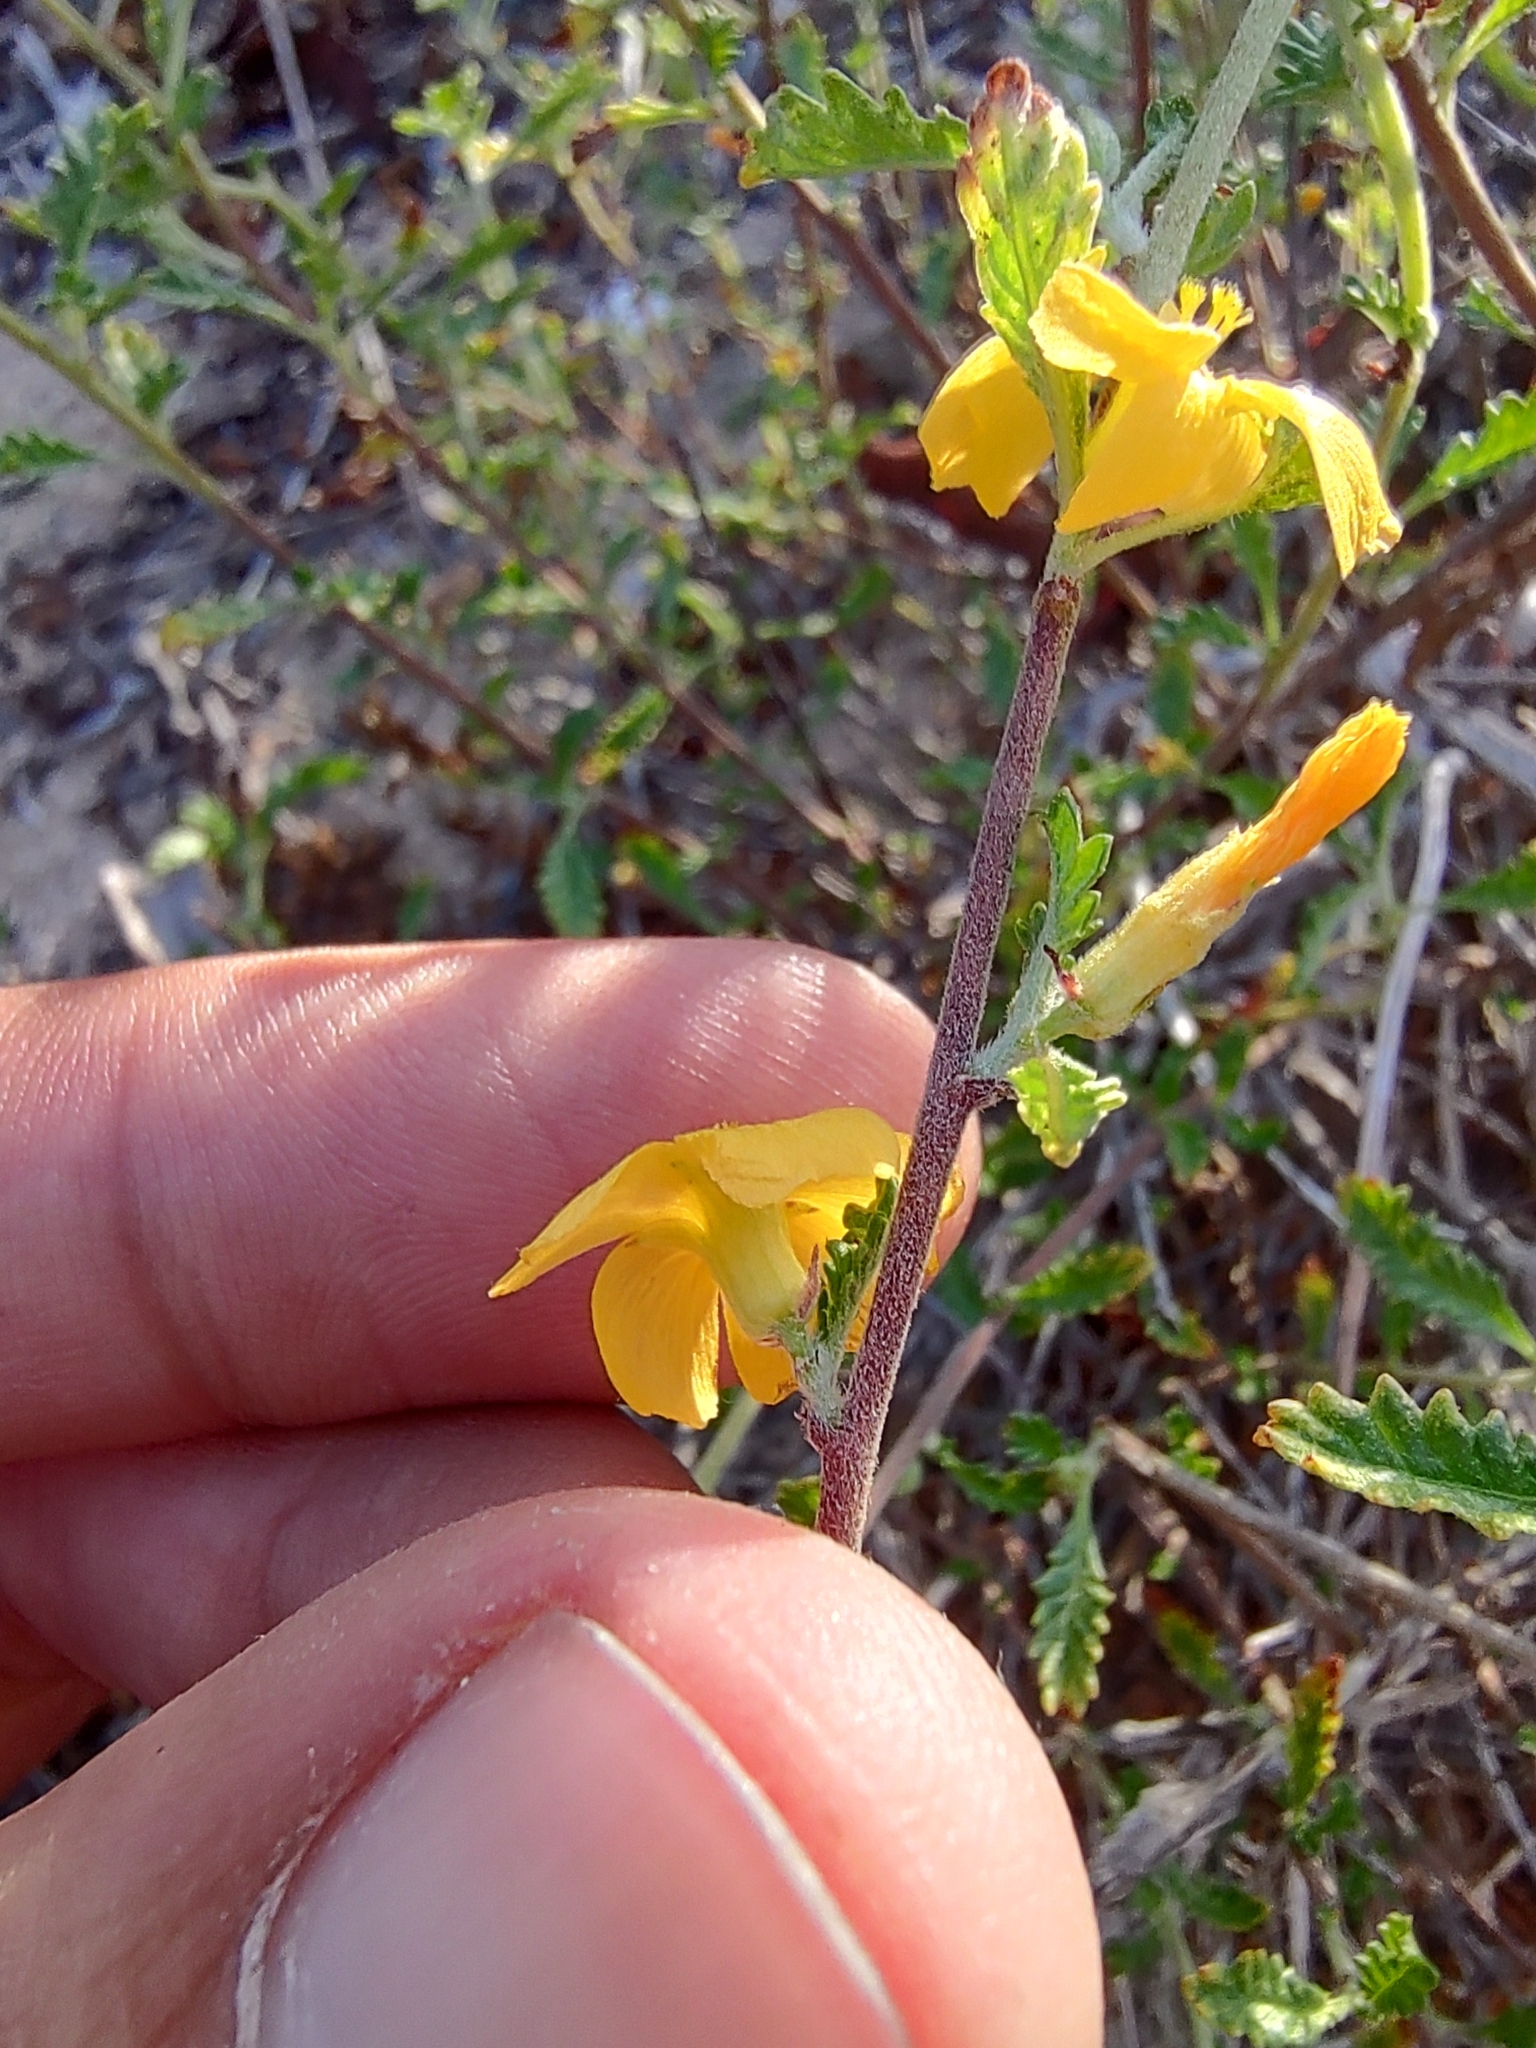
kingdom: Plantae
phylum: Tracheophyta
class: Magnoliopsida
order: Malpighiales
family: Turneraceae
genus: Turnera
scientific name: Turnera diffusa
